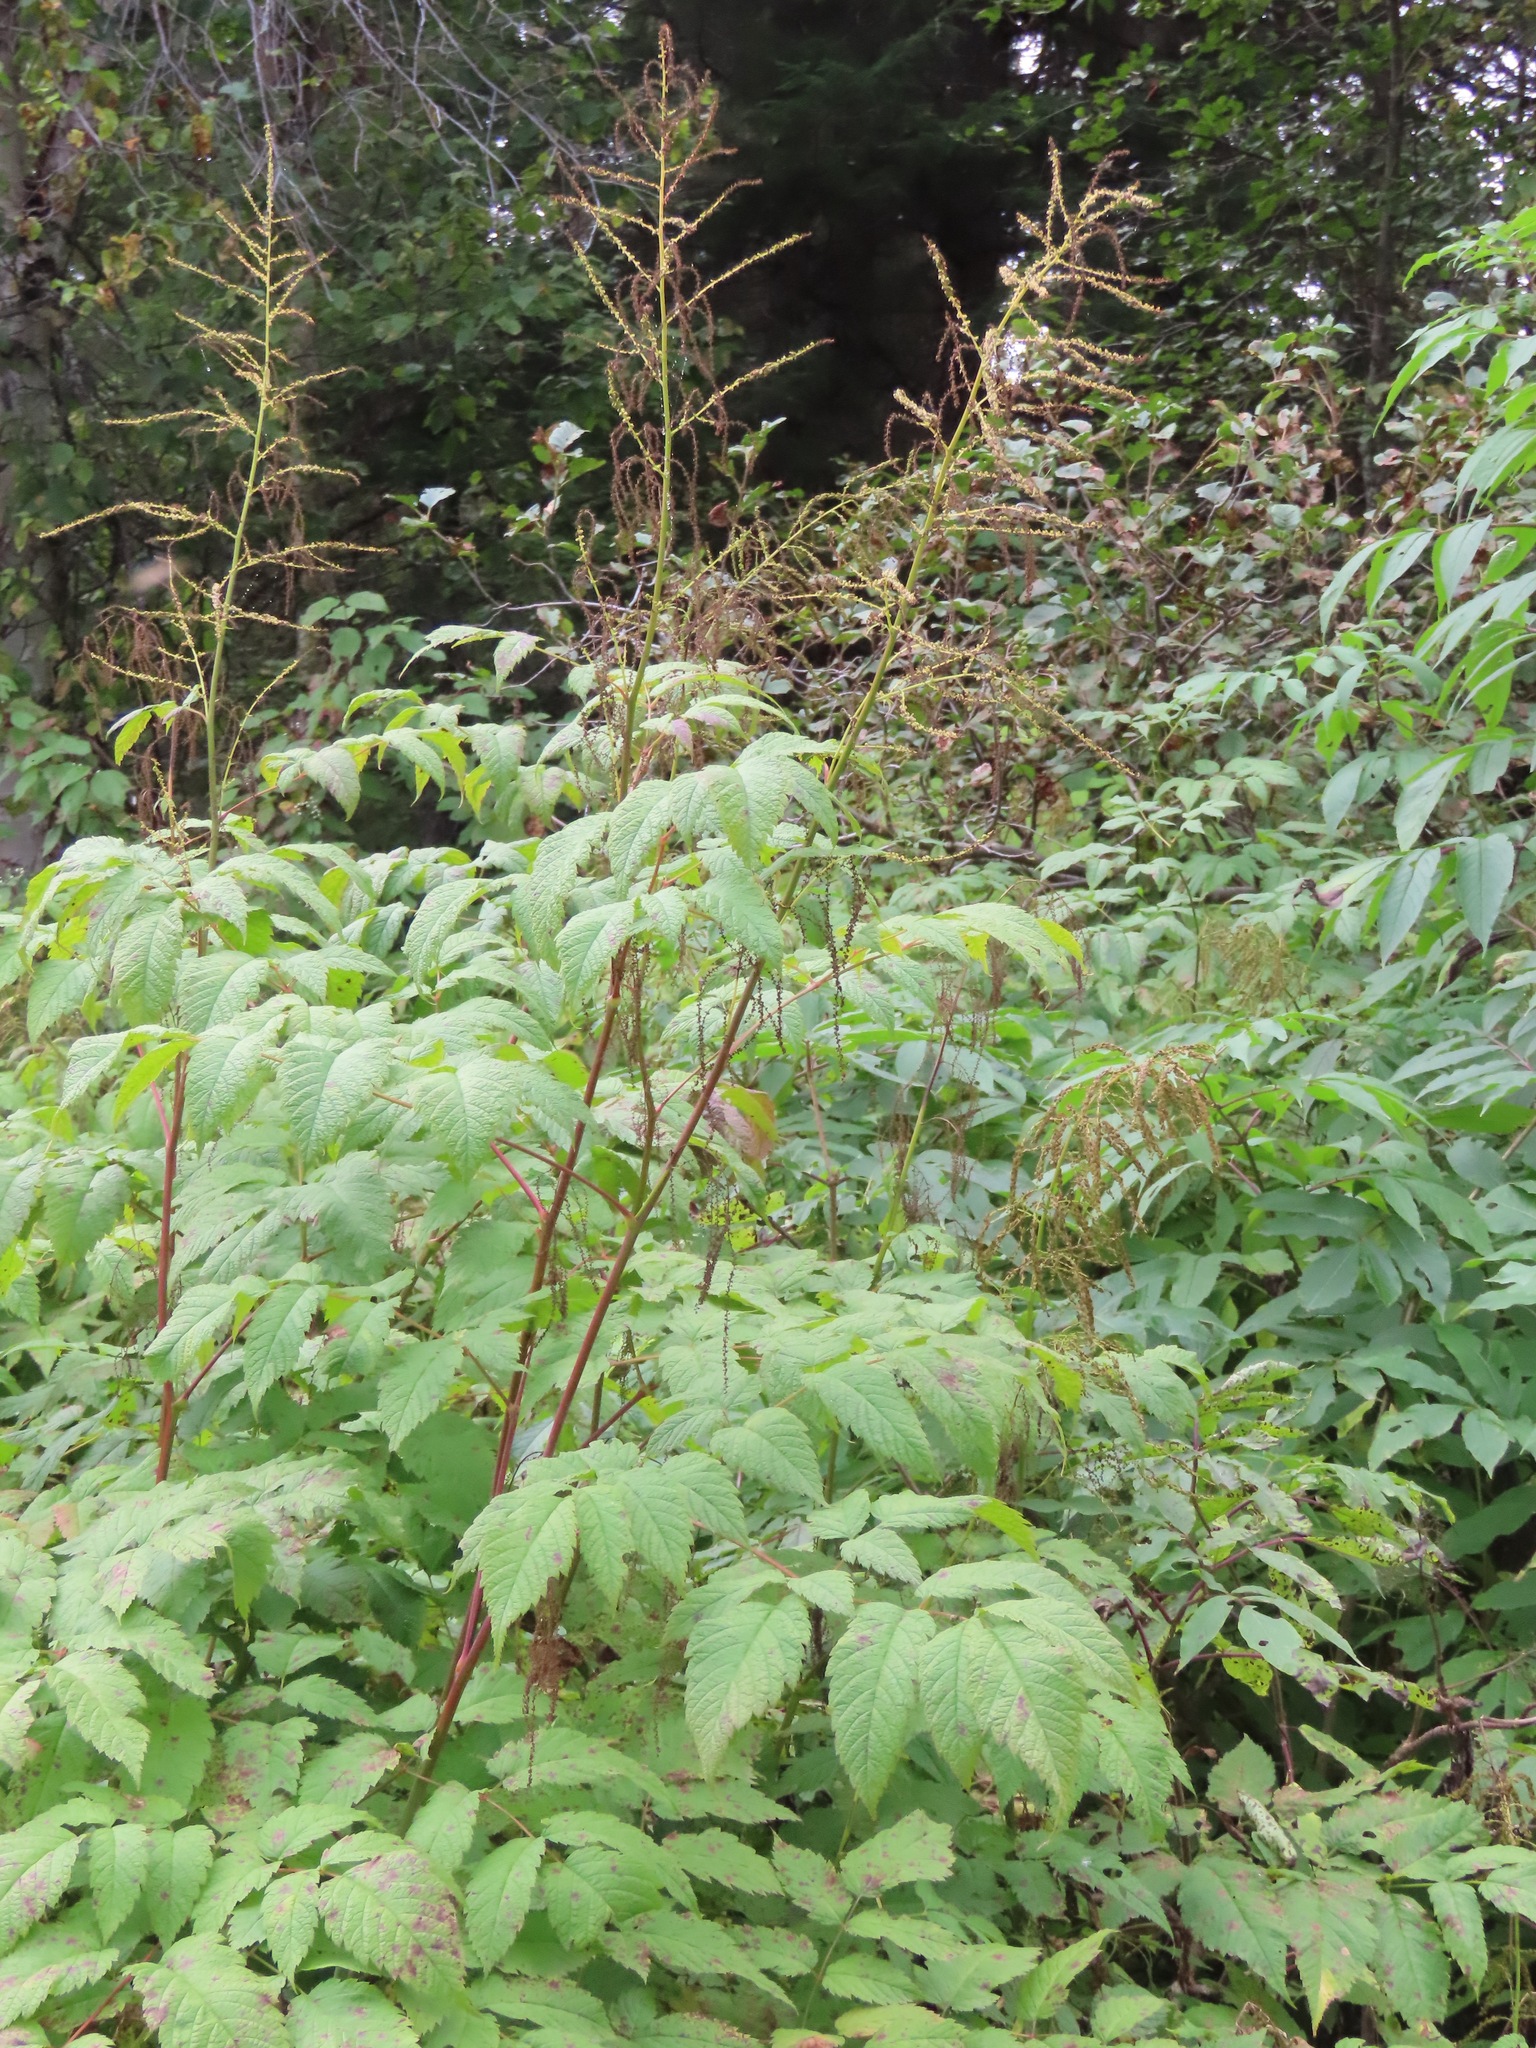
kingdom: Plantae
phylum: Tracheophyta
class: Magnoliopsida
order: Rosales
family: Rosaceae
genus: Aruncus
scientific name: Aruncus dioicus
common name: Buck's-beard
